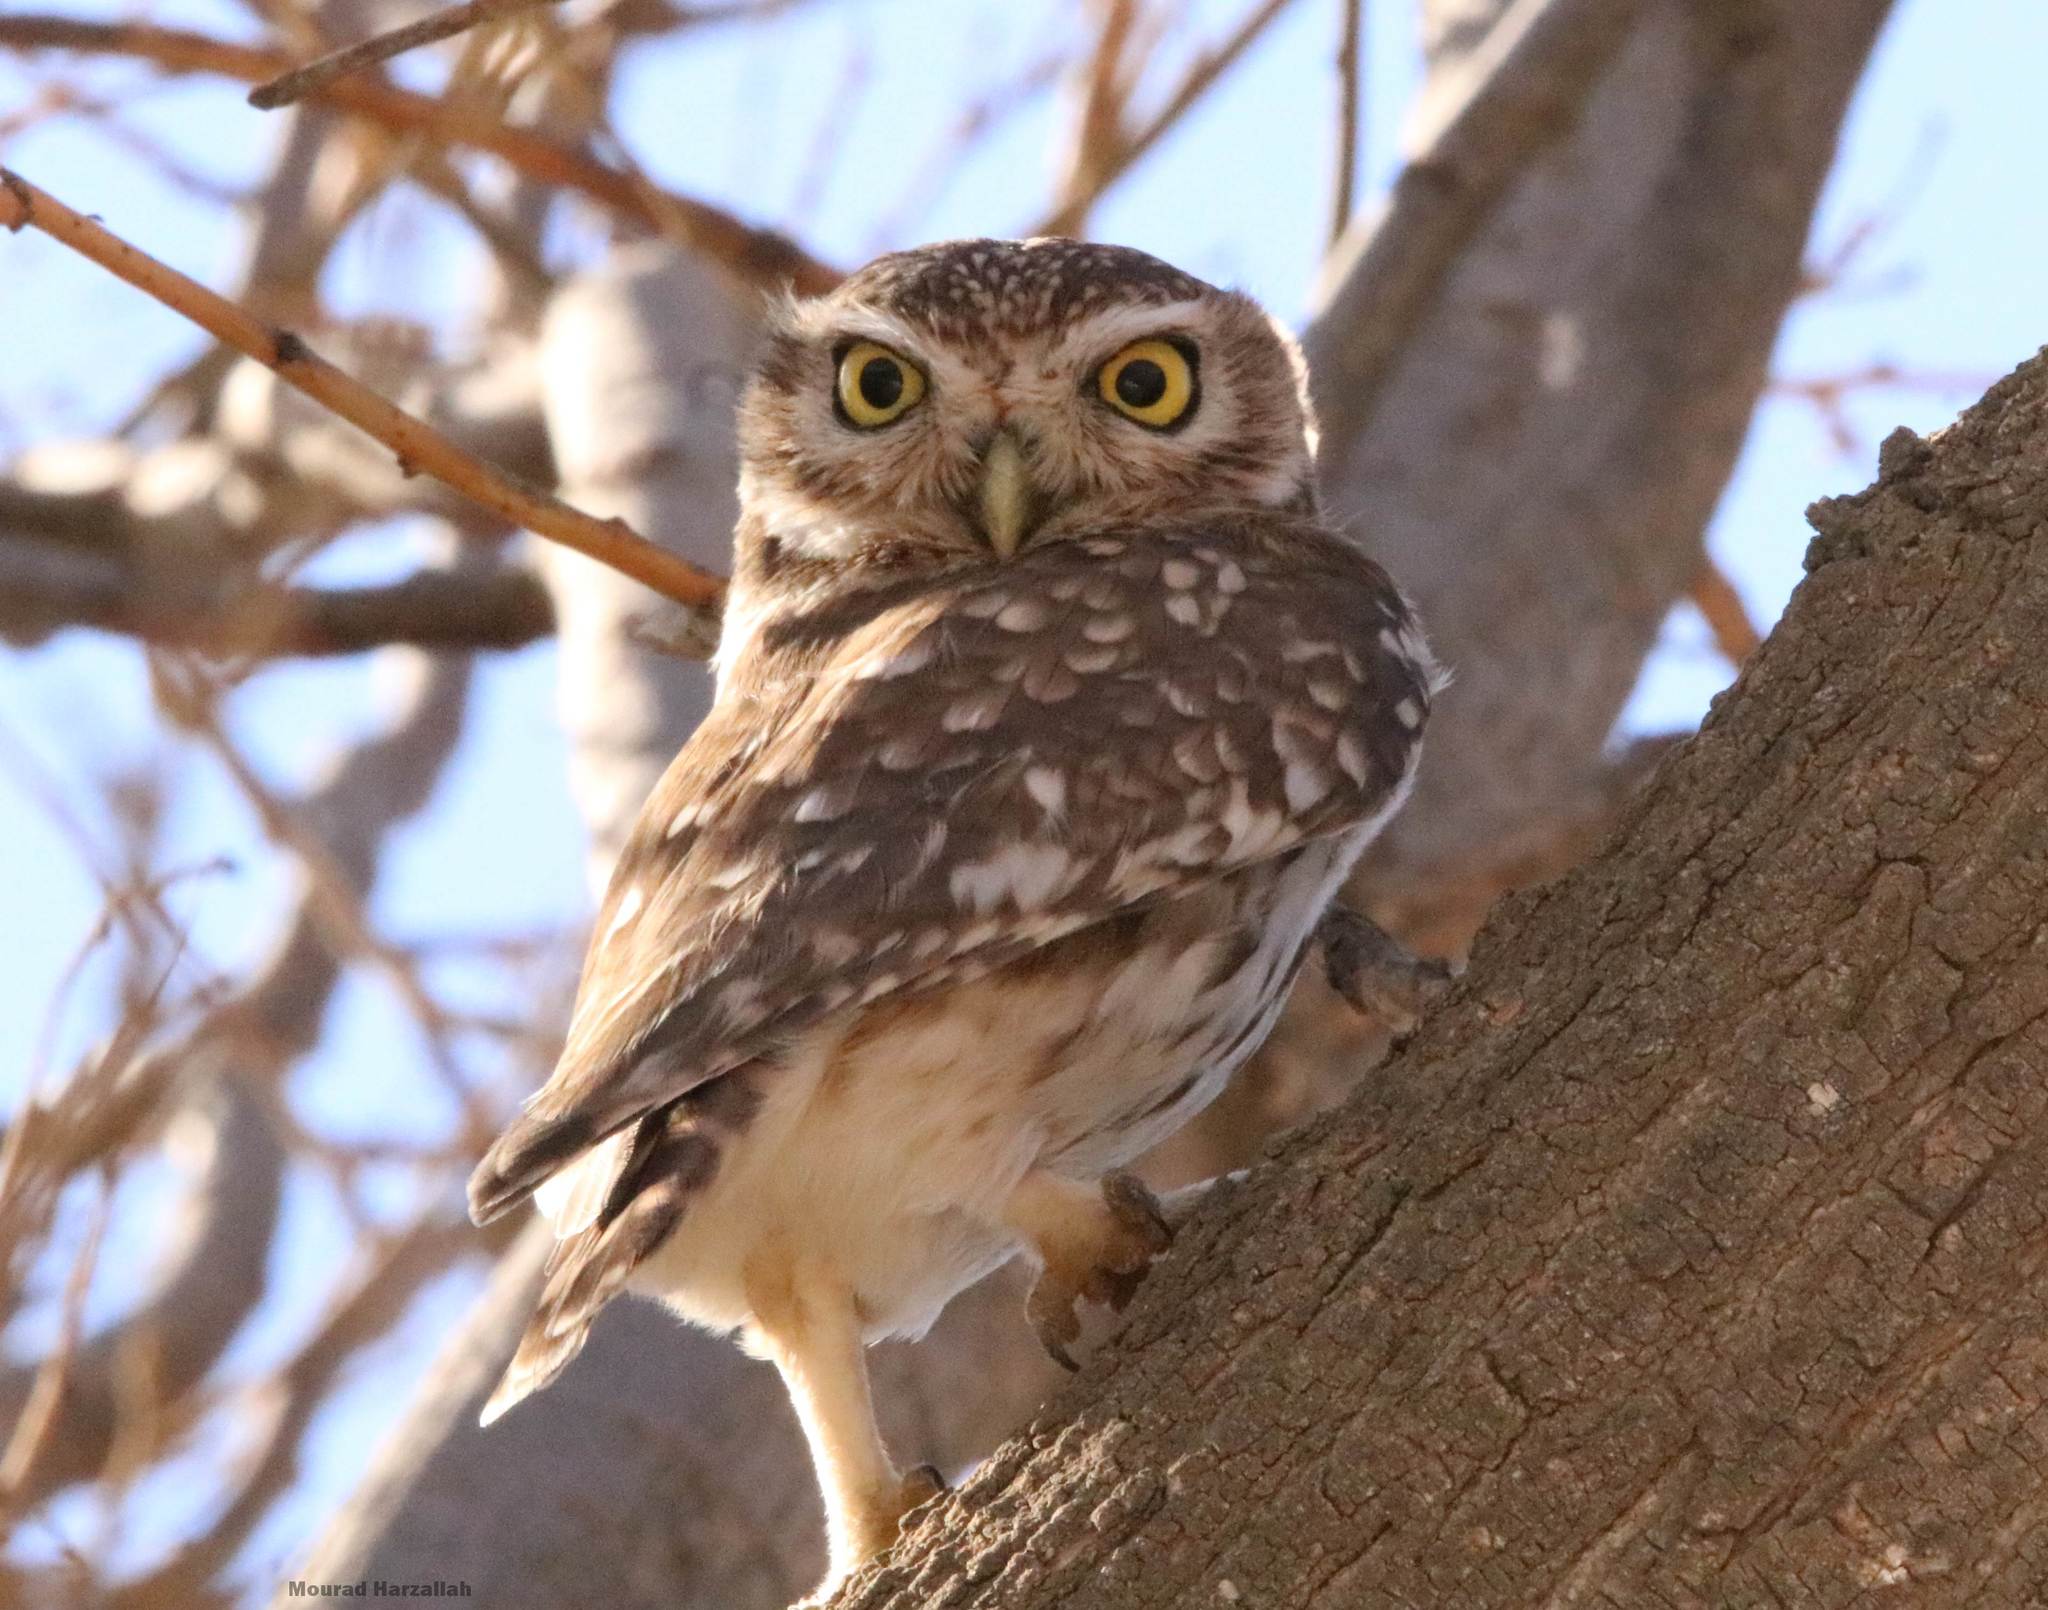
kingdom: Animalia
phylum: Chordata
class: Aves
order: Strigiformes
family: Strigidae
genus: Athene
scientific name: Athene noctua
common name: Little owl
